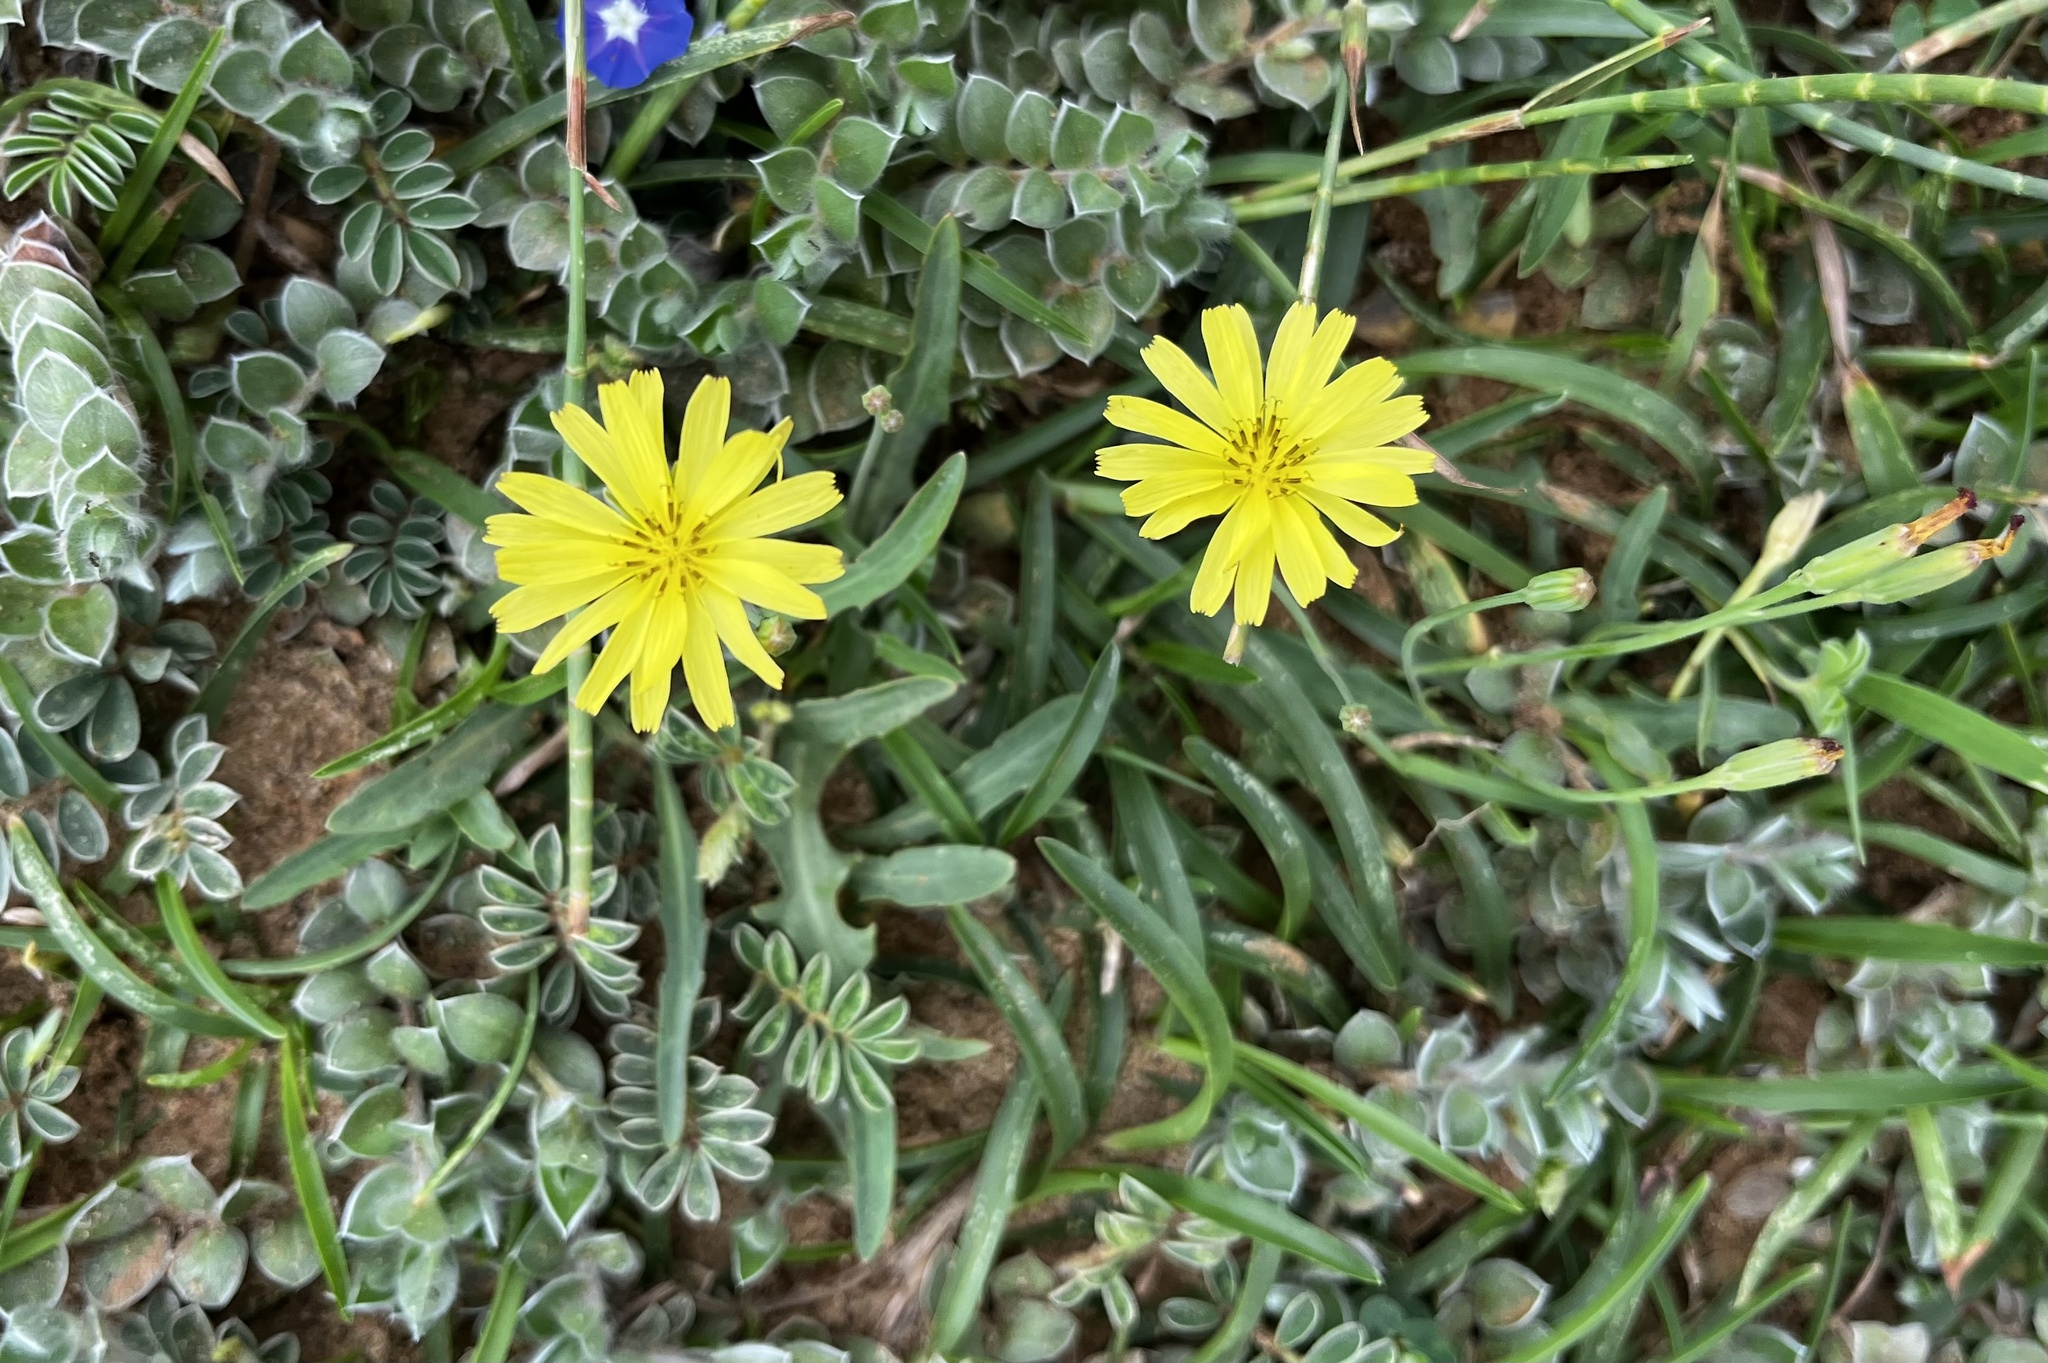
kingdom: Plantae
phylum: Tracheophyta
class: Magnoliopsida
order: Asterales
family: Asteraceae
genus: Ixeris
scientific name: Ixeris japonica
